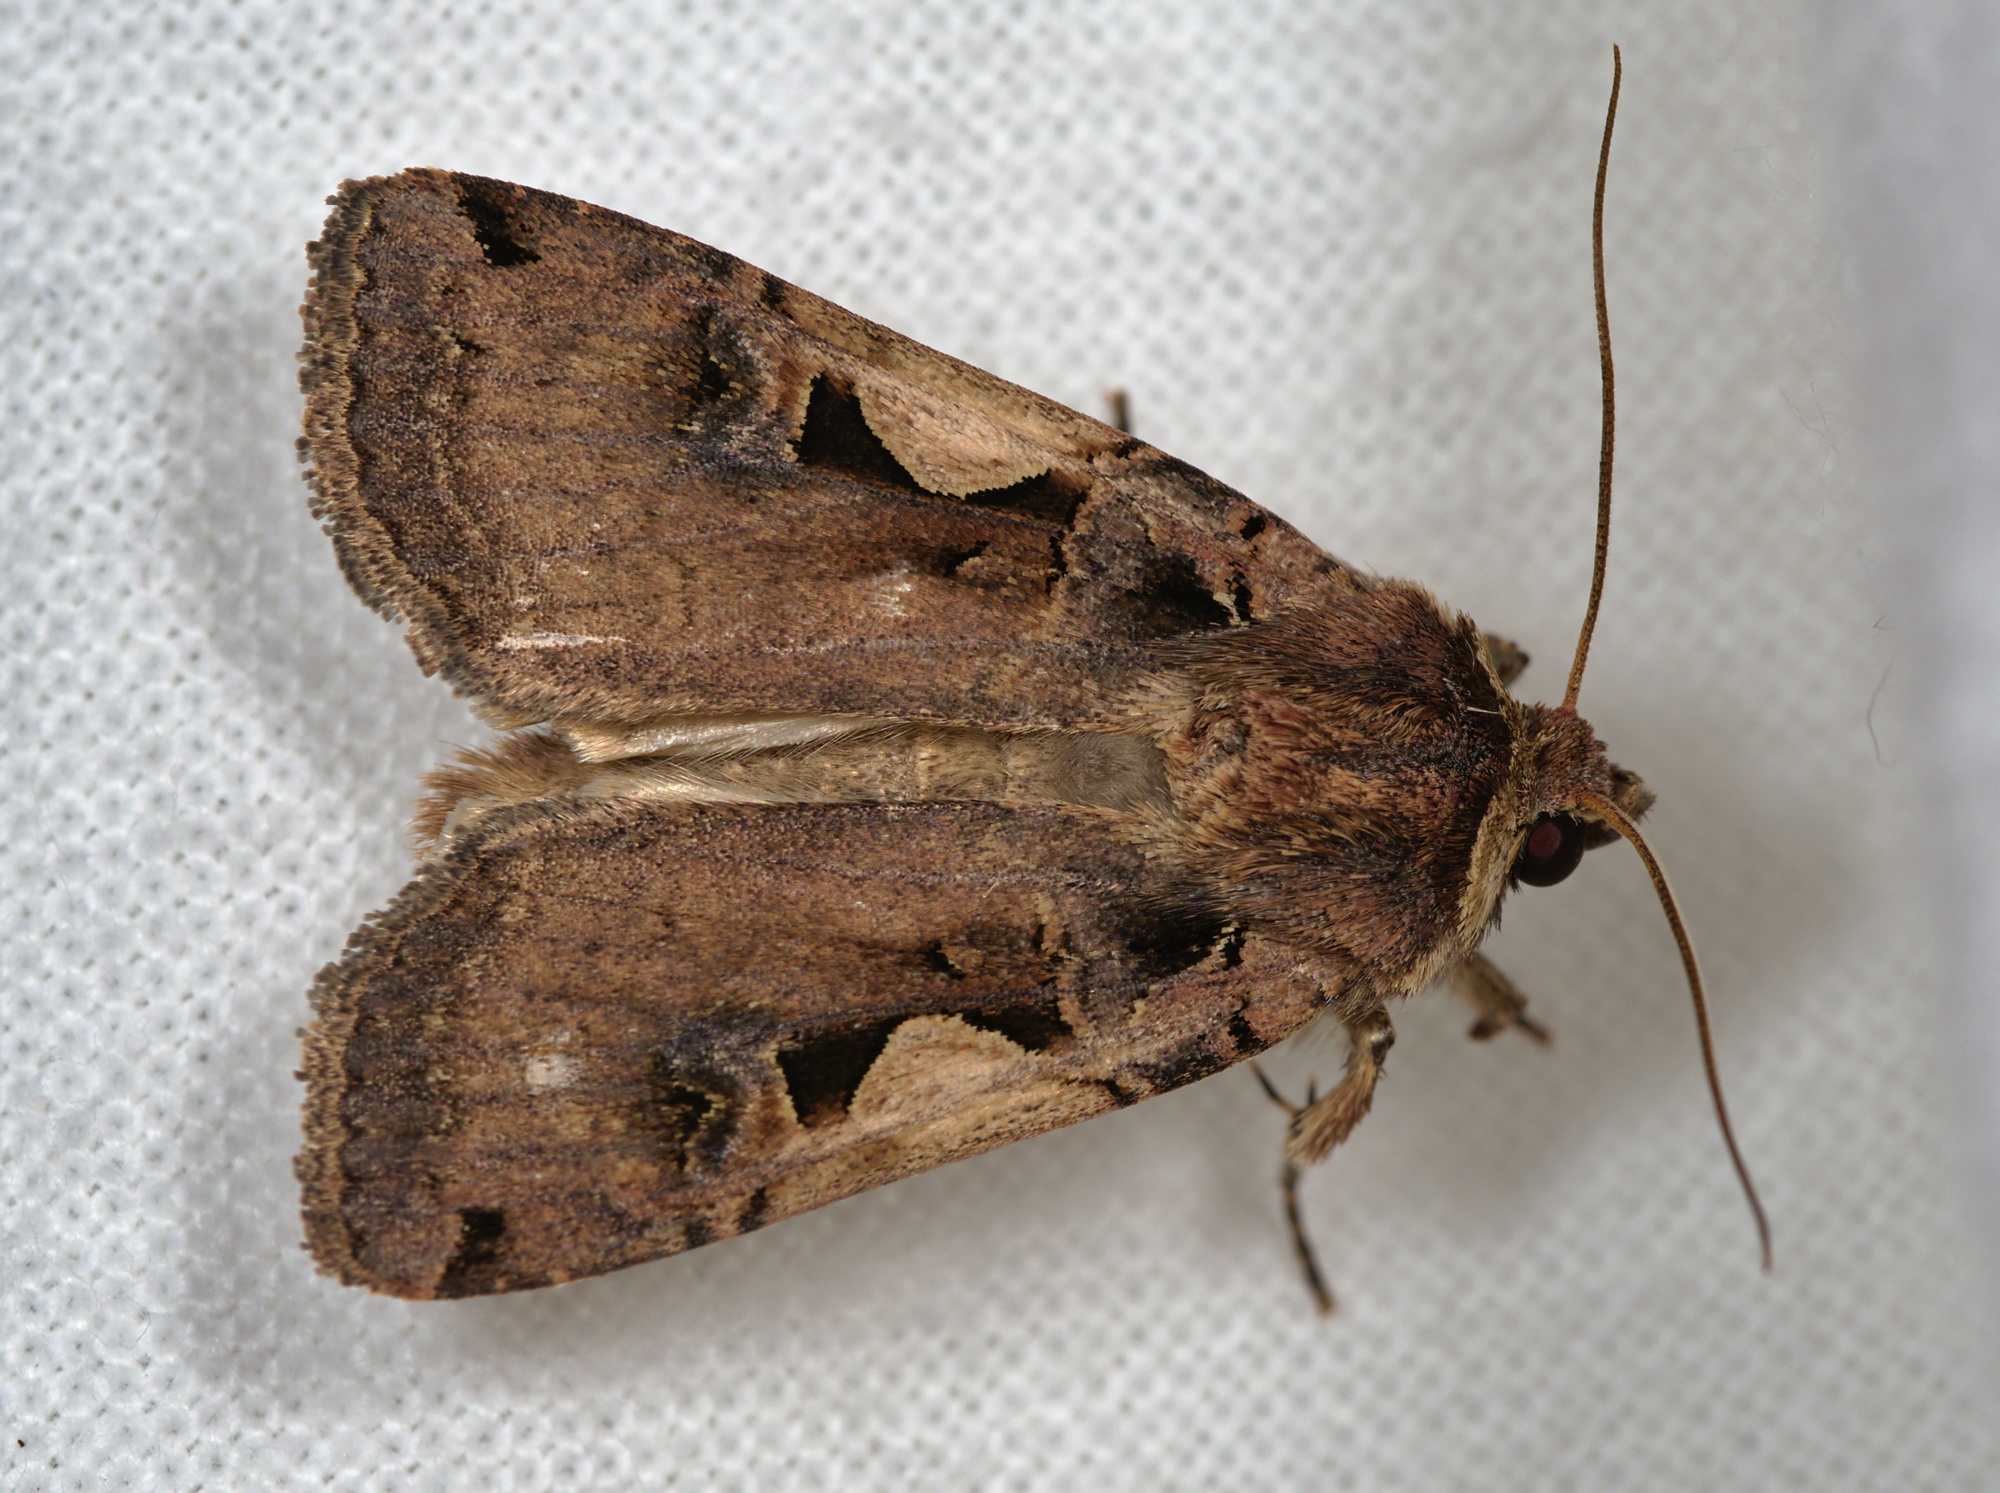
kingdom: Animalia
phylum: Arthropoda
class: Insecta
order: Lepidoptera
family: Noctuidae
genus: Xestia
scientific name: Xestia c-nigrum
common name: Setaceous hebrew character
